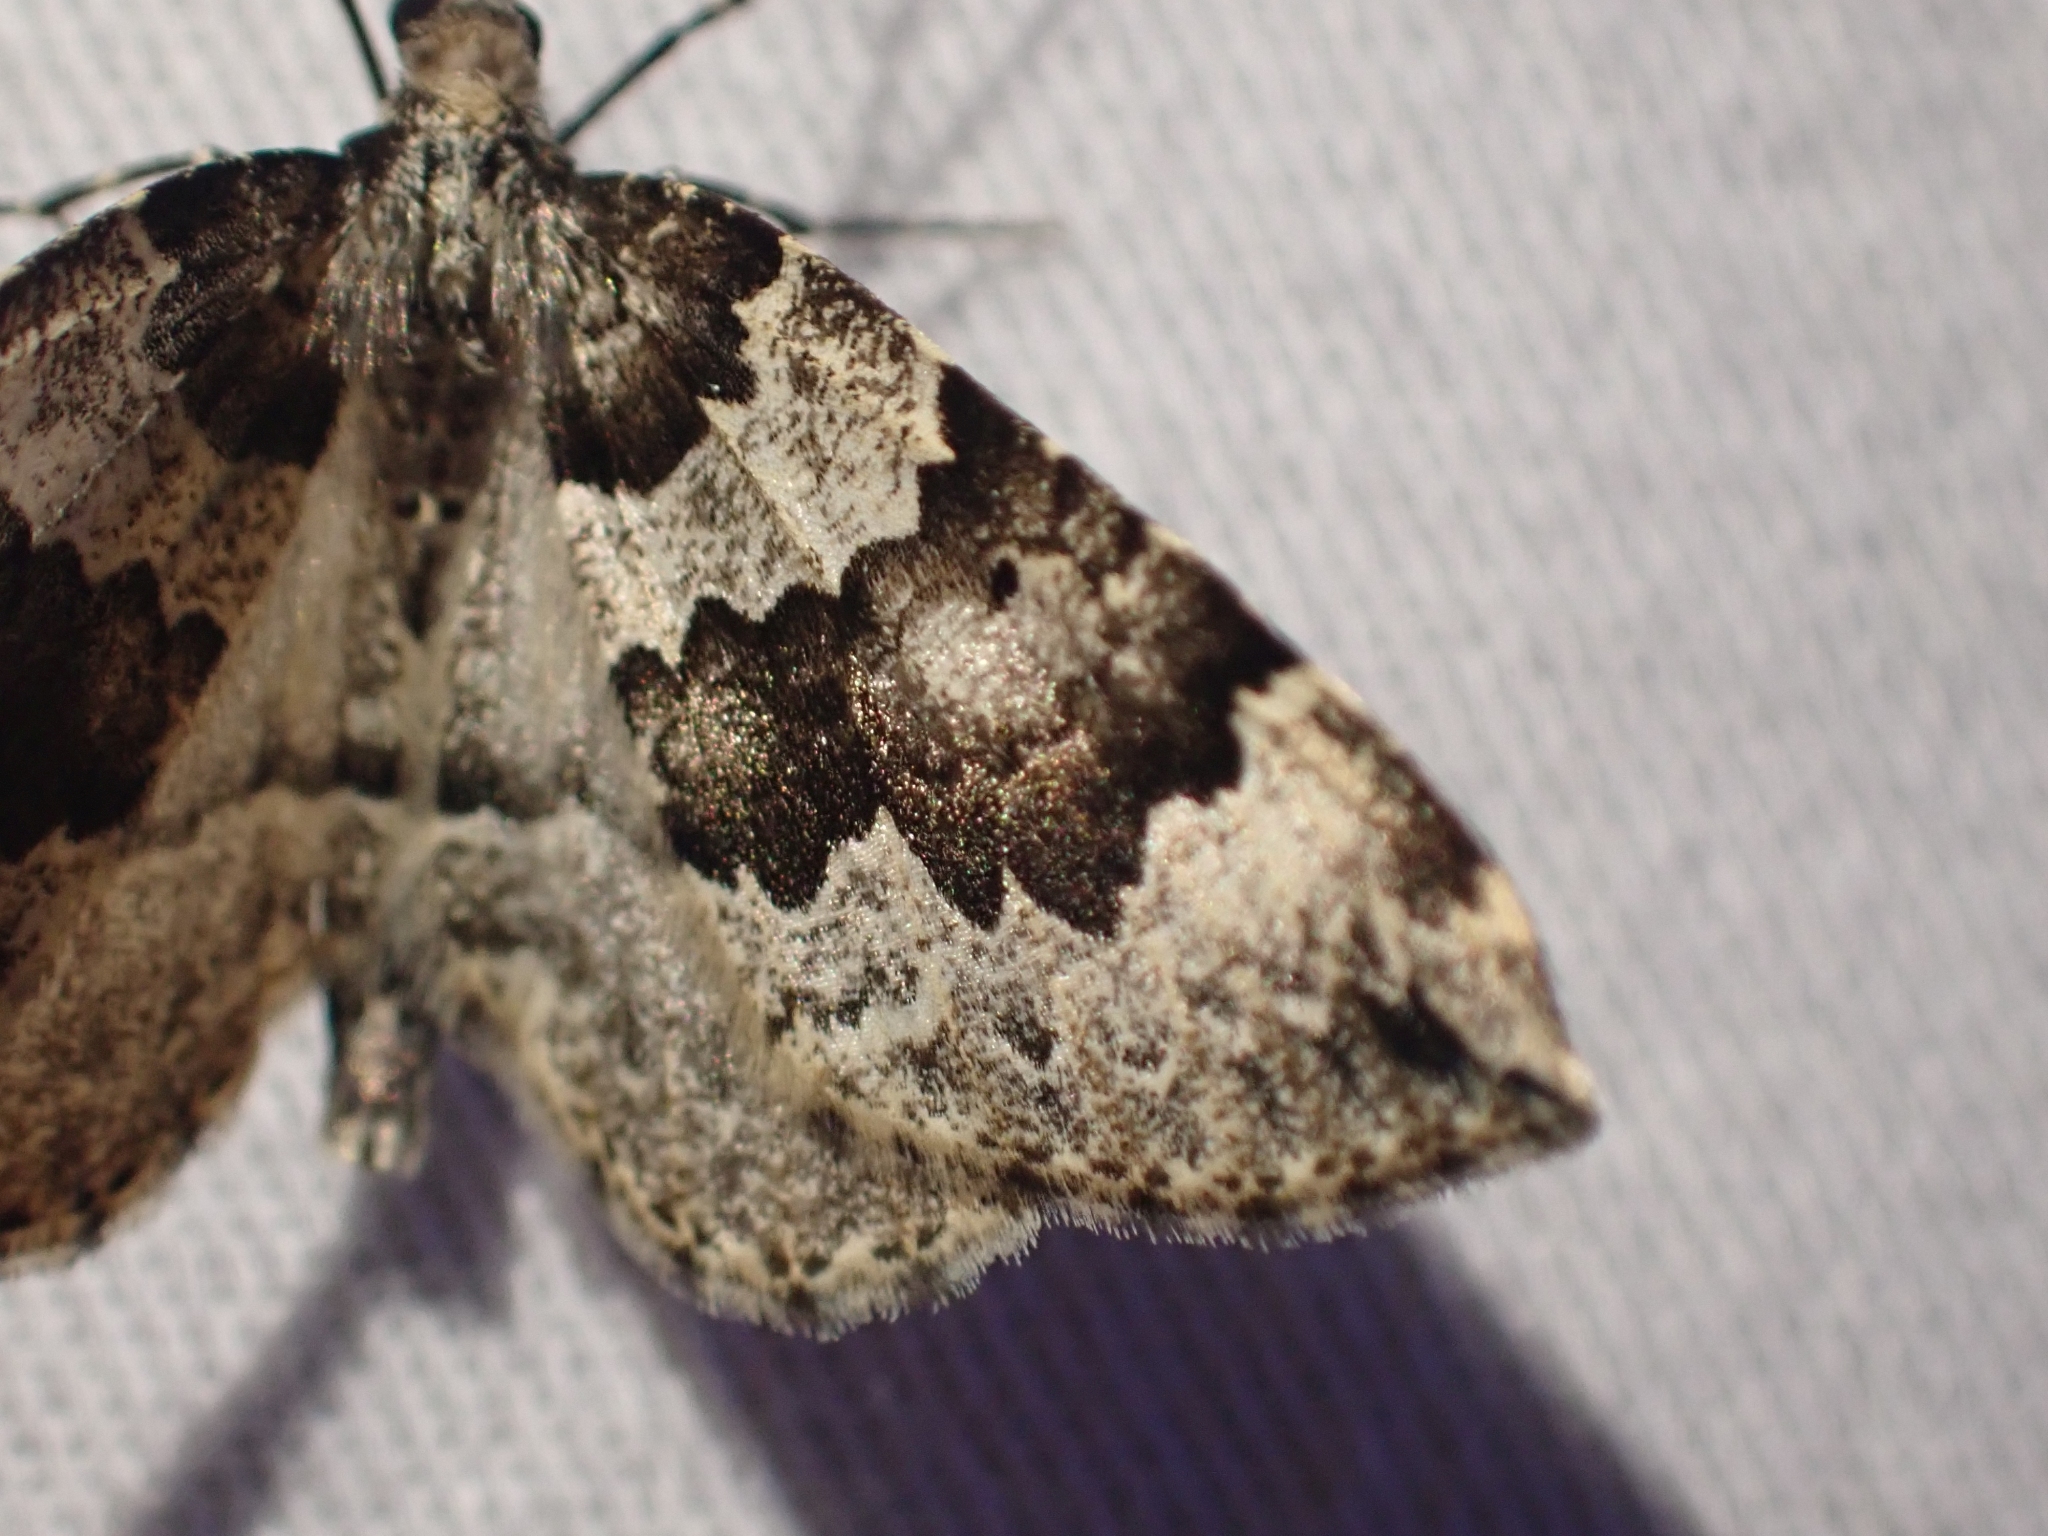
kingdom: Animalia
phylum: Arthropoda
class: Insecta
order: Lepidoptera
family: Geometridae
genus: Eustroma
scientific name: Eustroma semiatrata
